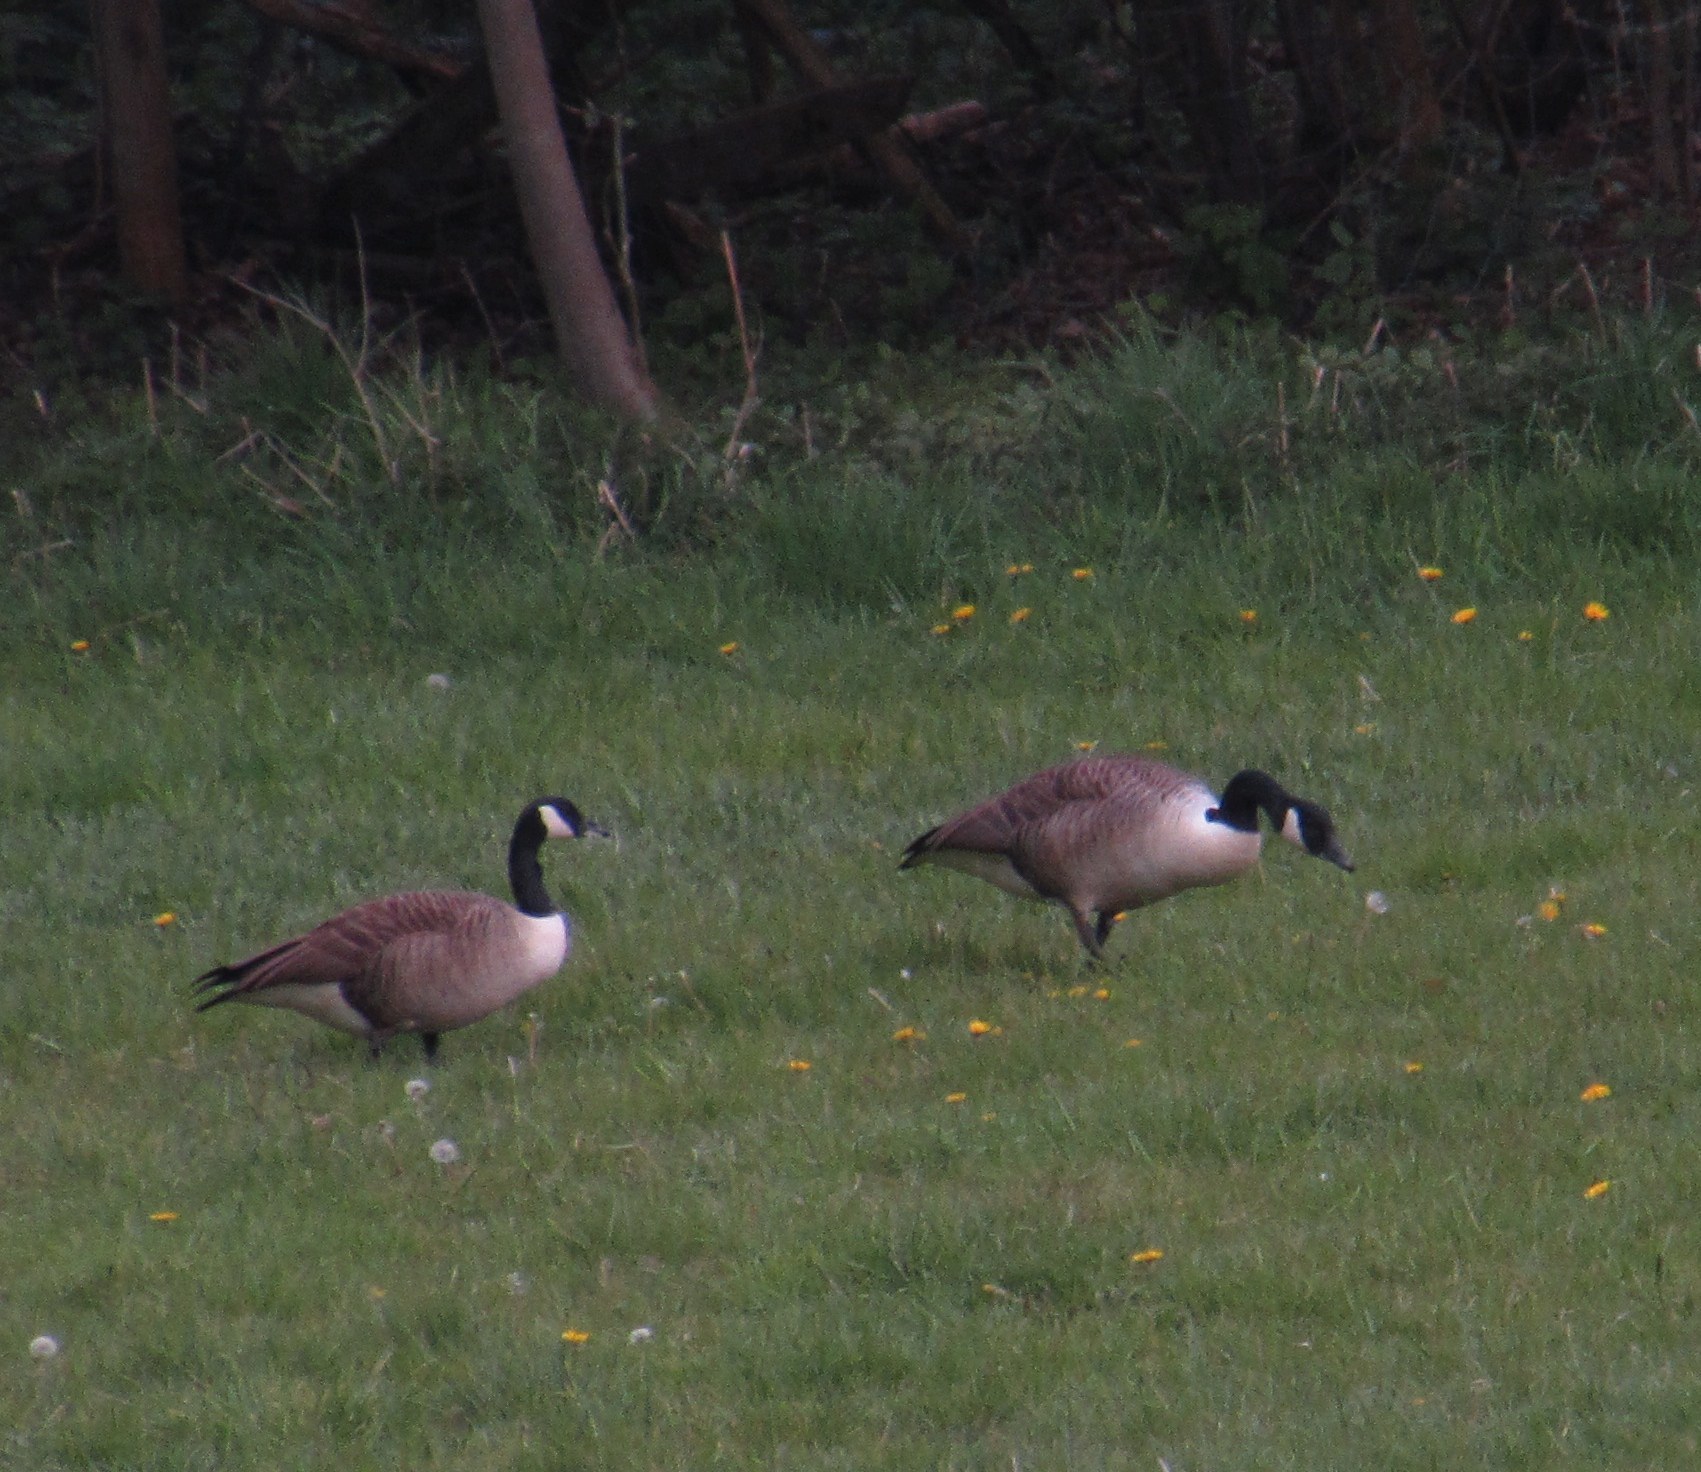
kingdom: Animalia
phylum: Chordata
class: Aves
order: Anseriformes
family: Anatidae
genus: Branta
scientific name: Branta canadensis
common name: Canada goose
